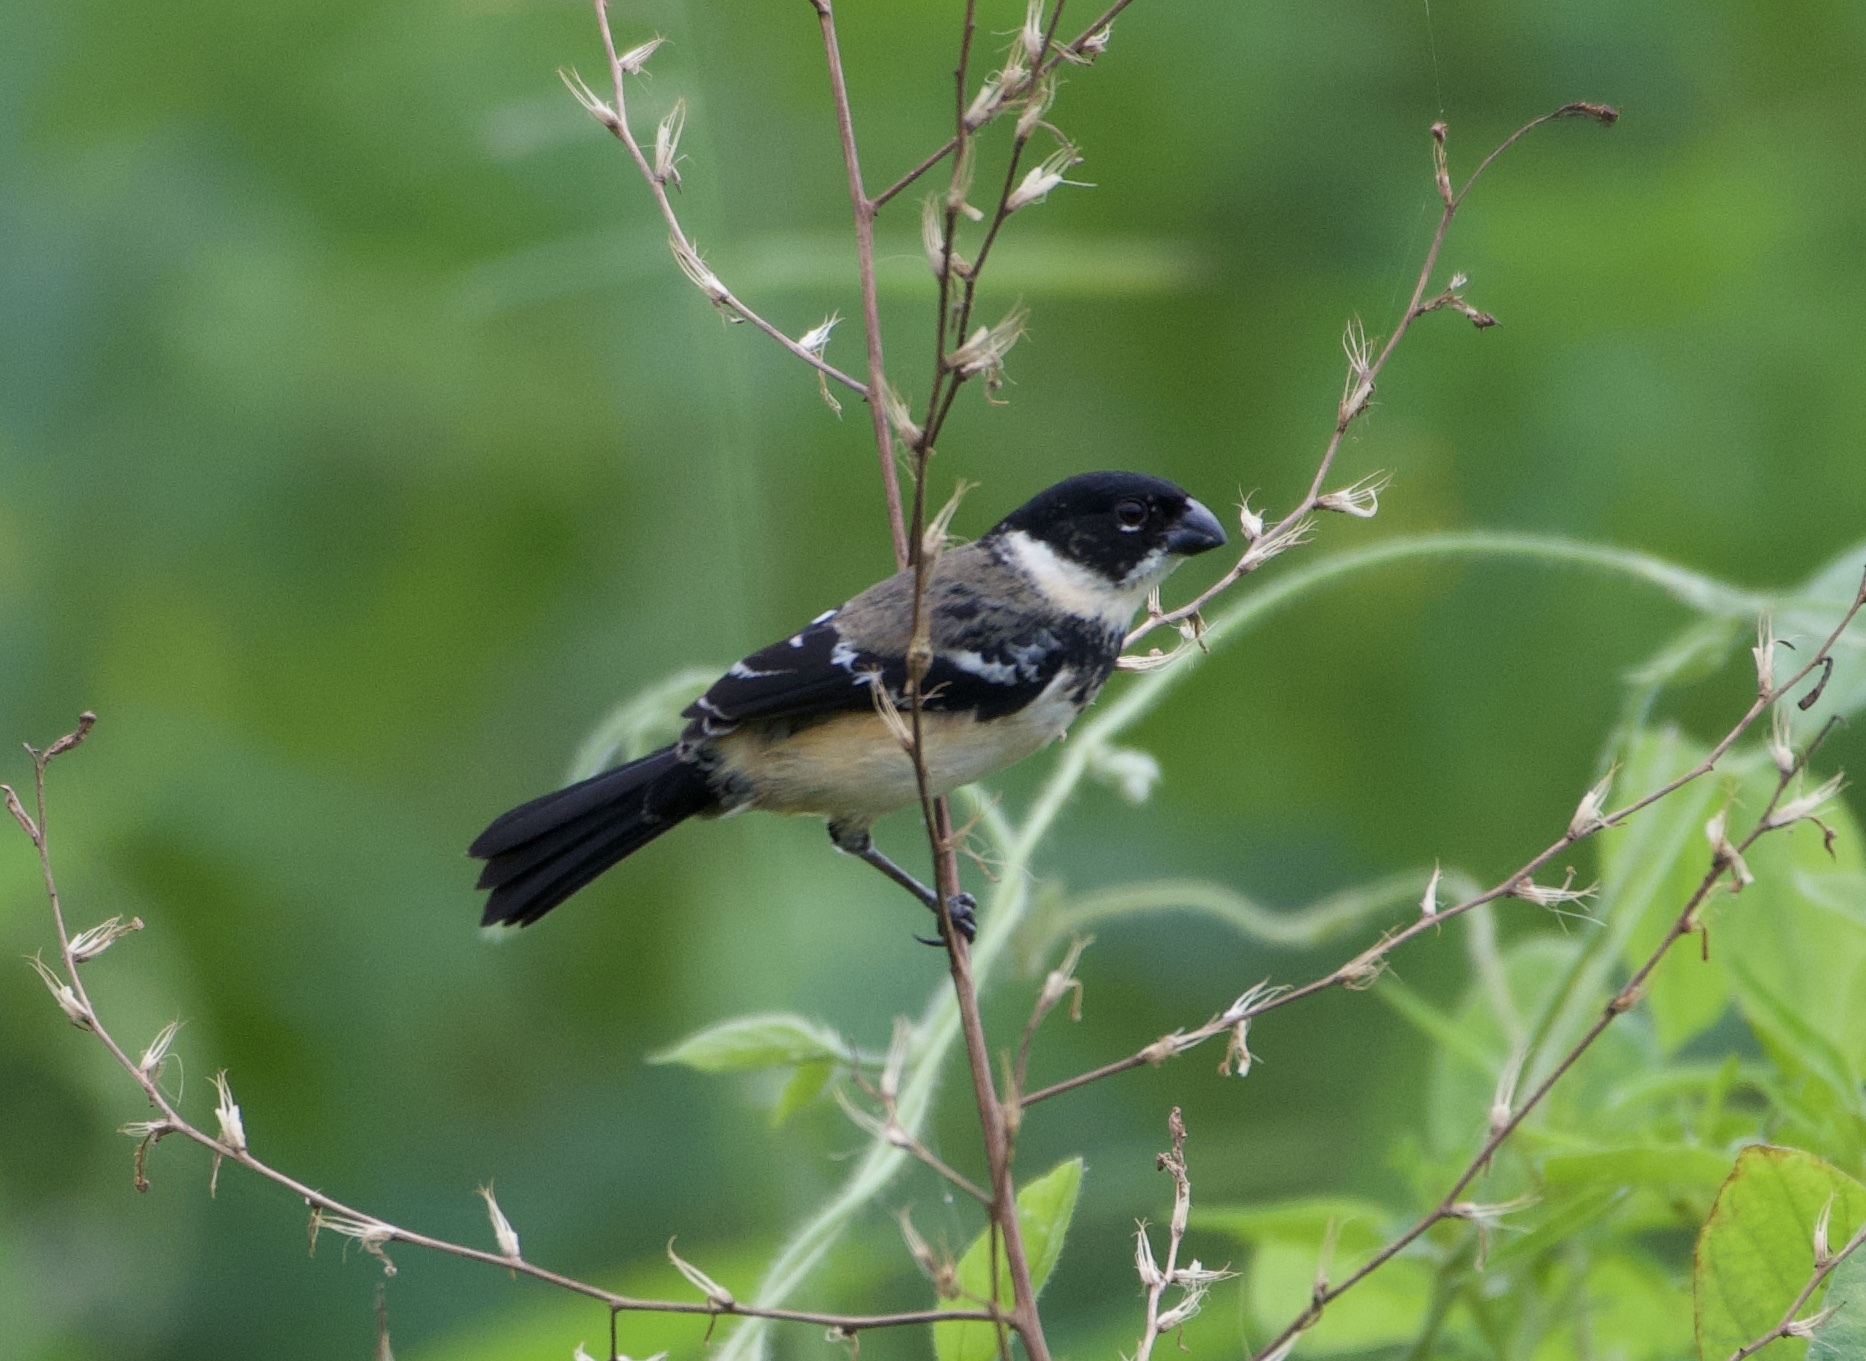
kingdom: Animalia
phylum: Chordata
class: Aves
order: Passeriformes
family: Thraupidae
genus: Sporophila
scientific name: Sporophila morelleti
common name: Morelet's seedeater
